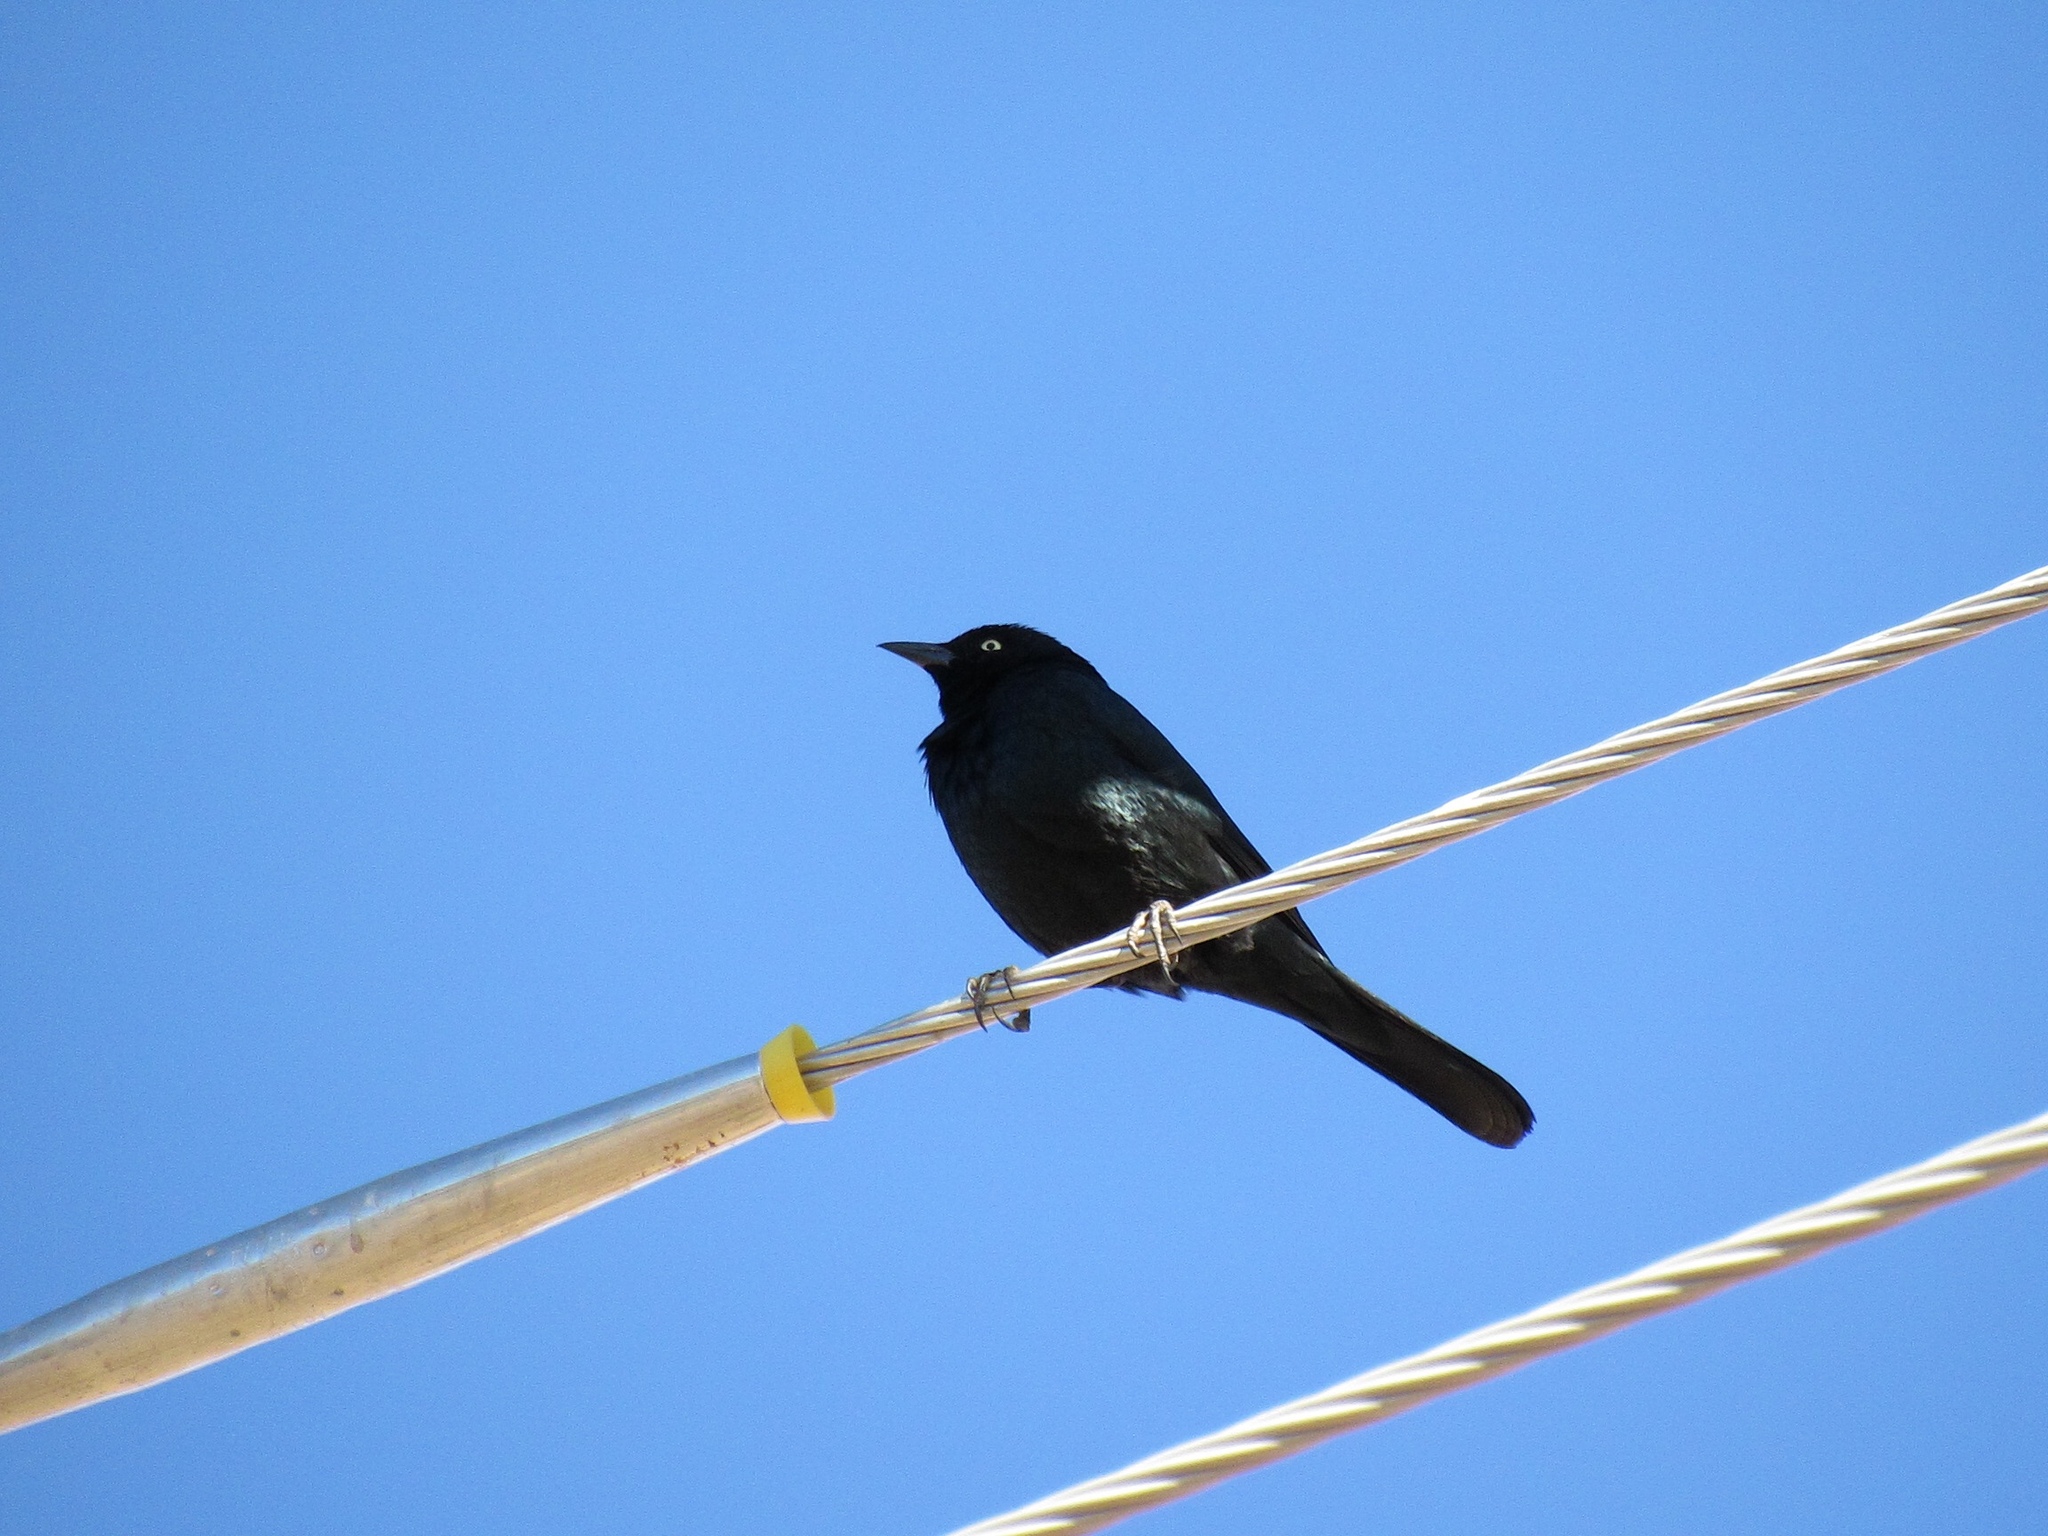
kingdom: Animalia
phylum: Chordata
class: Aves
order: Passeriformes
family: Icteridae
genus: Euphagus
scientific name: Euphagus cyanocephalus
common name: Brewer's blackbird
